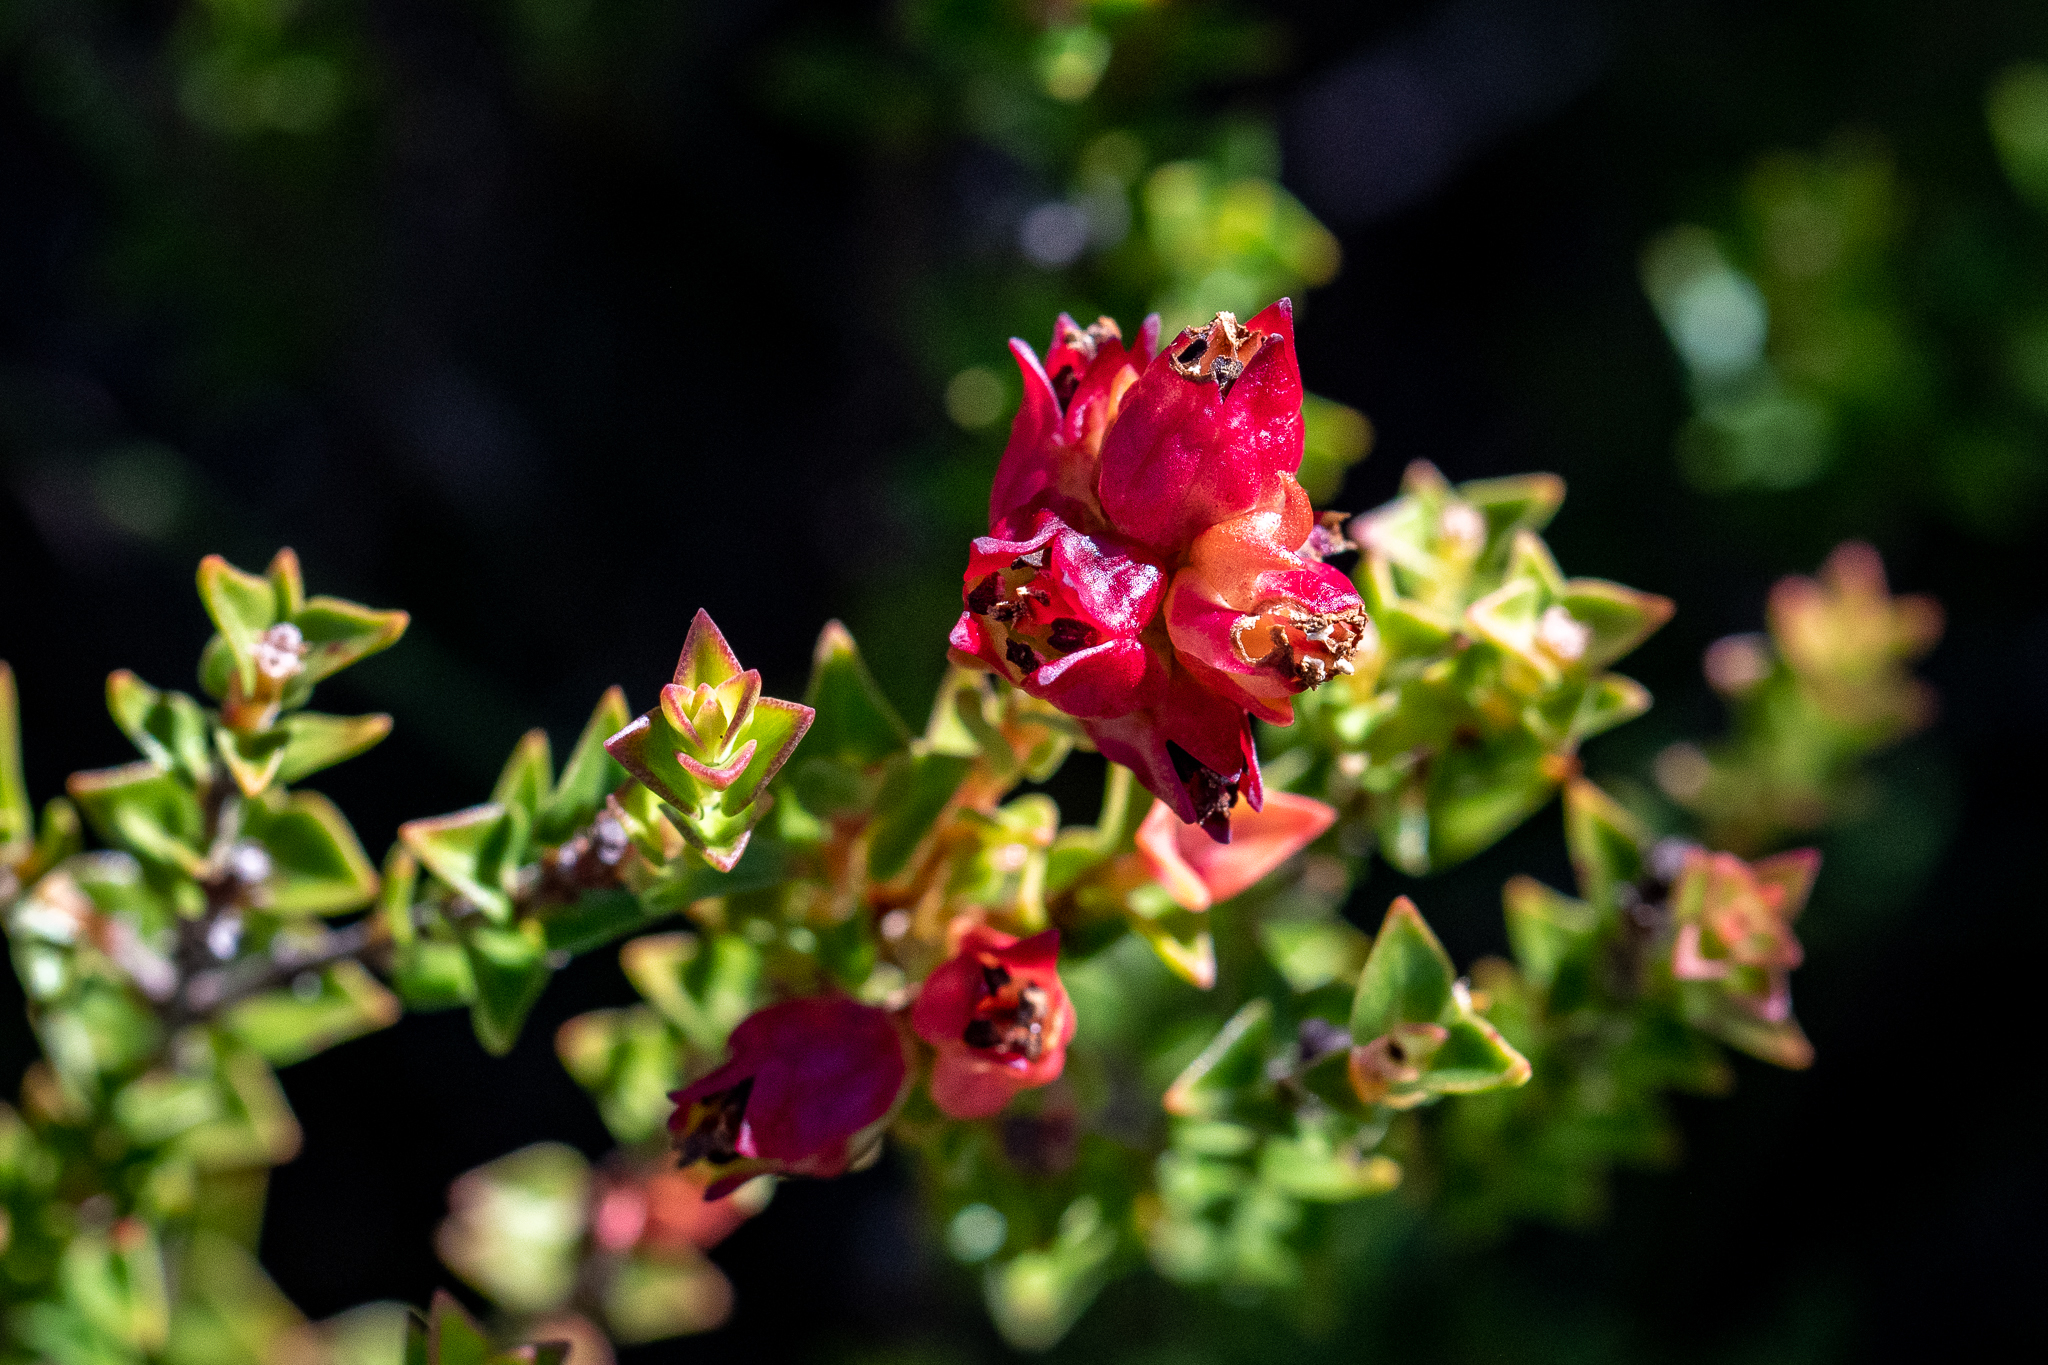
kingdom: Plantae
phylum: Tracheophyta
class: Magnoliopsida
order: Myrtales
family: Penaeaceae
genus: Penaea
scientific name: Penaea mucronata
